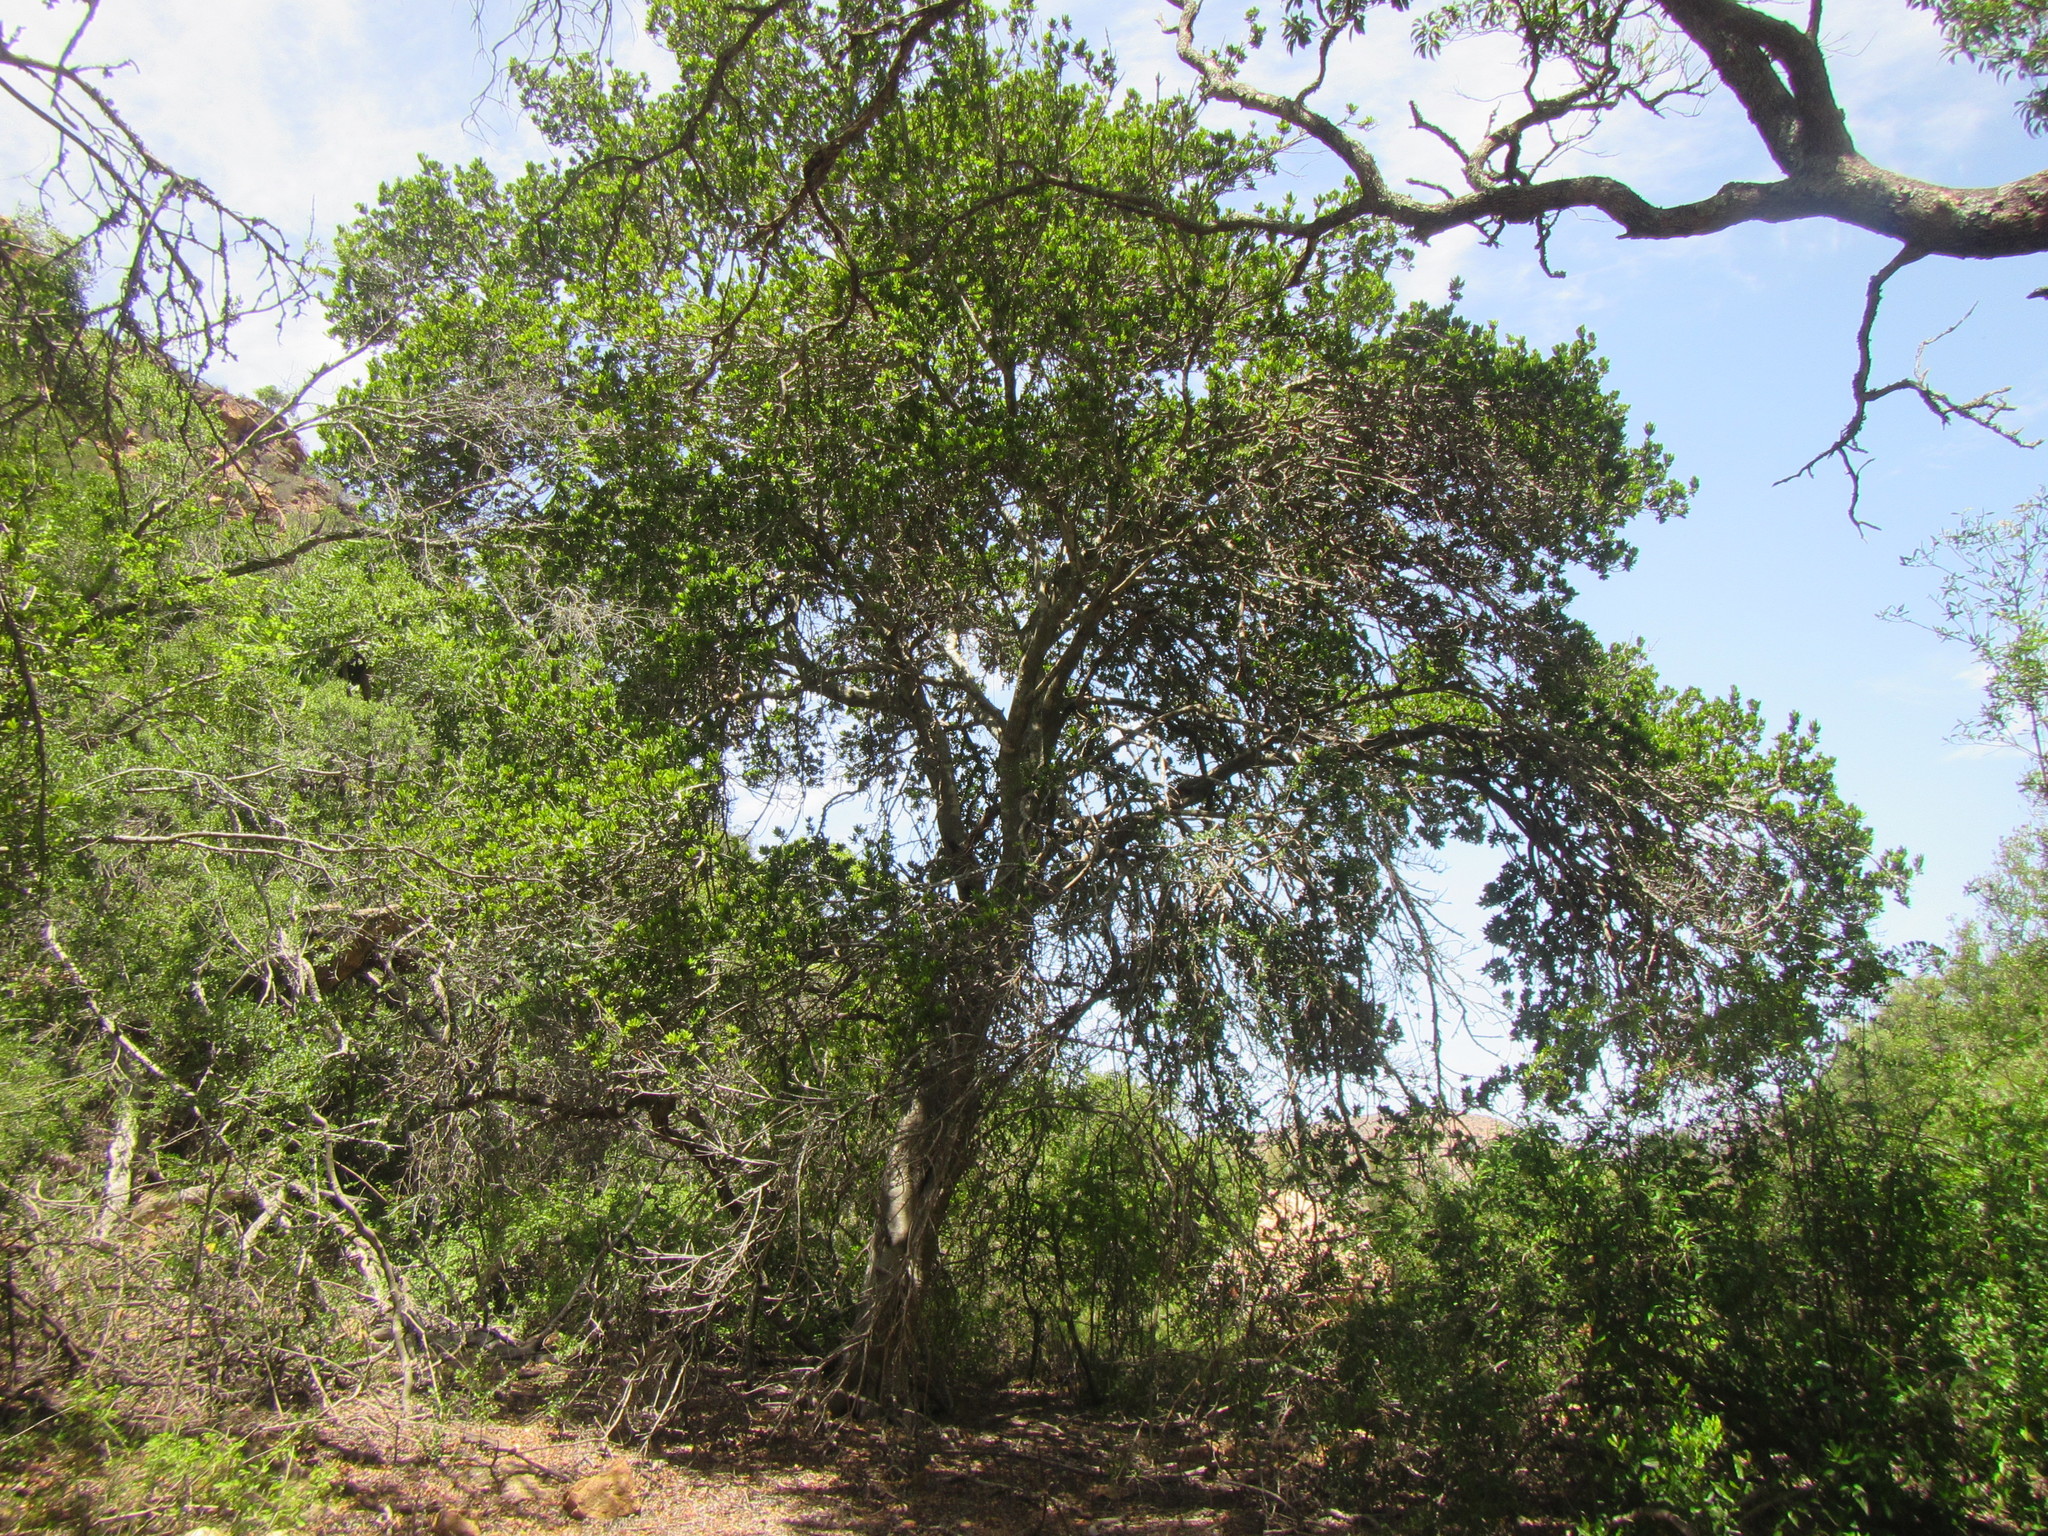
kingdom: Plantae
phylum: Tracheophyta
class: Magnoliopsida
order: Sapindales
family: Sapindaceae
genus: Pappea
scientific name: Pappea capensis
